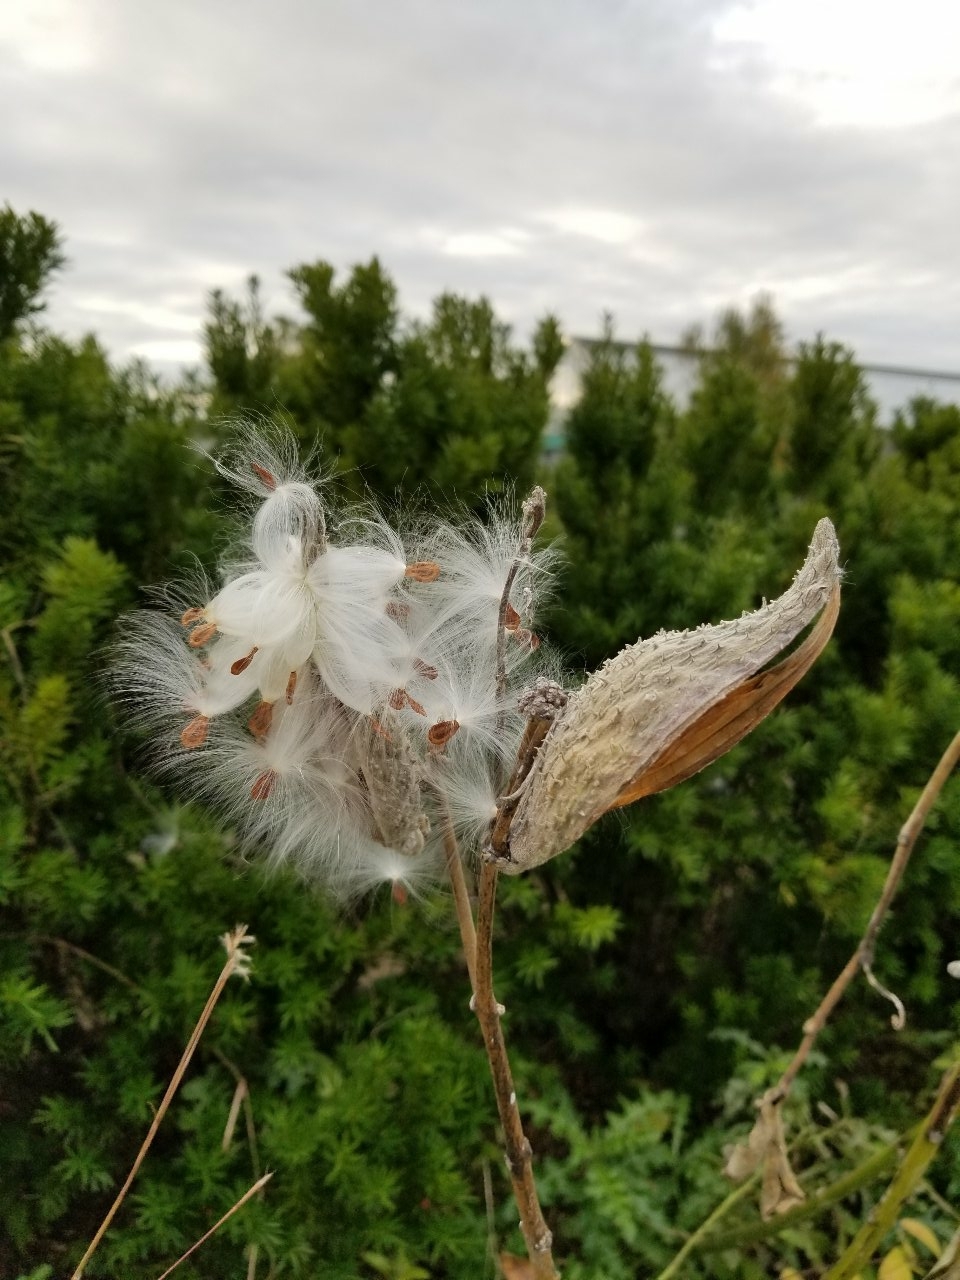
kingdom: Plantae
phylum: Tracheophyta
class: Magnoliopsida
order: Gentianales
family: Apocynaceae
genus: Asclepias
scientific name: Asclepias syriaca
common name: Common milkweed
